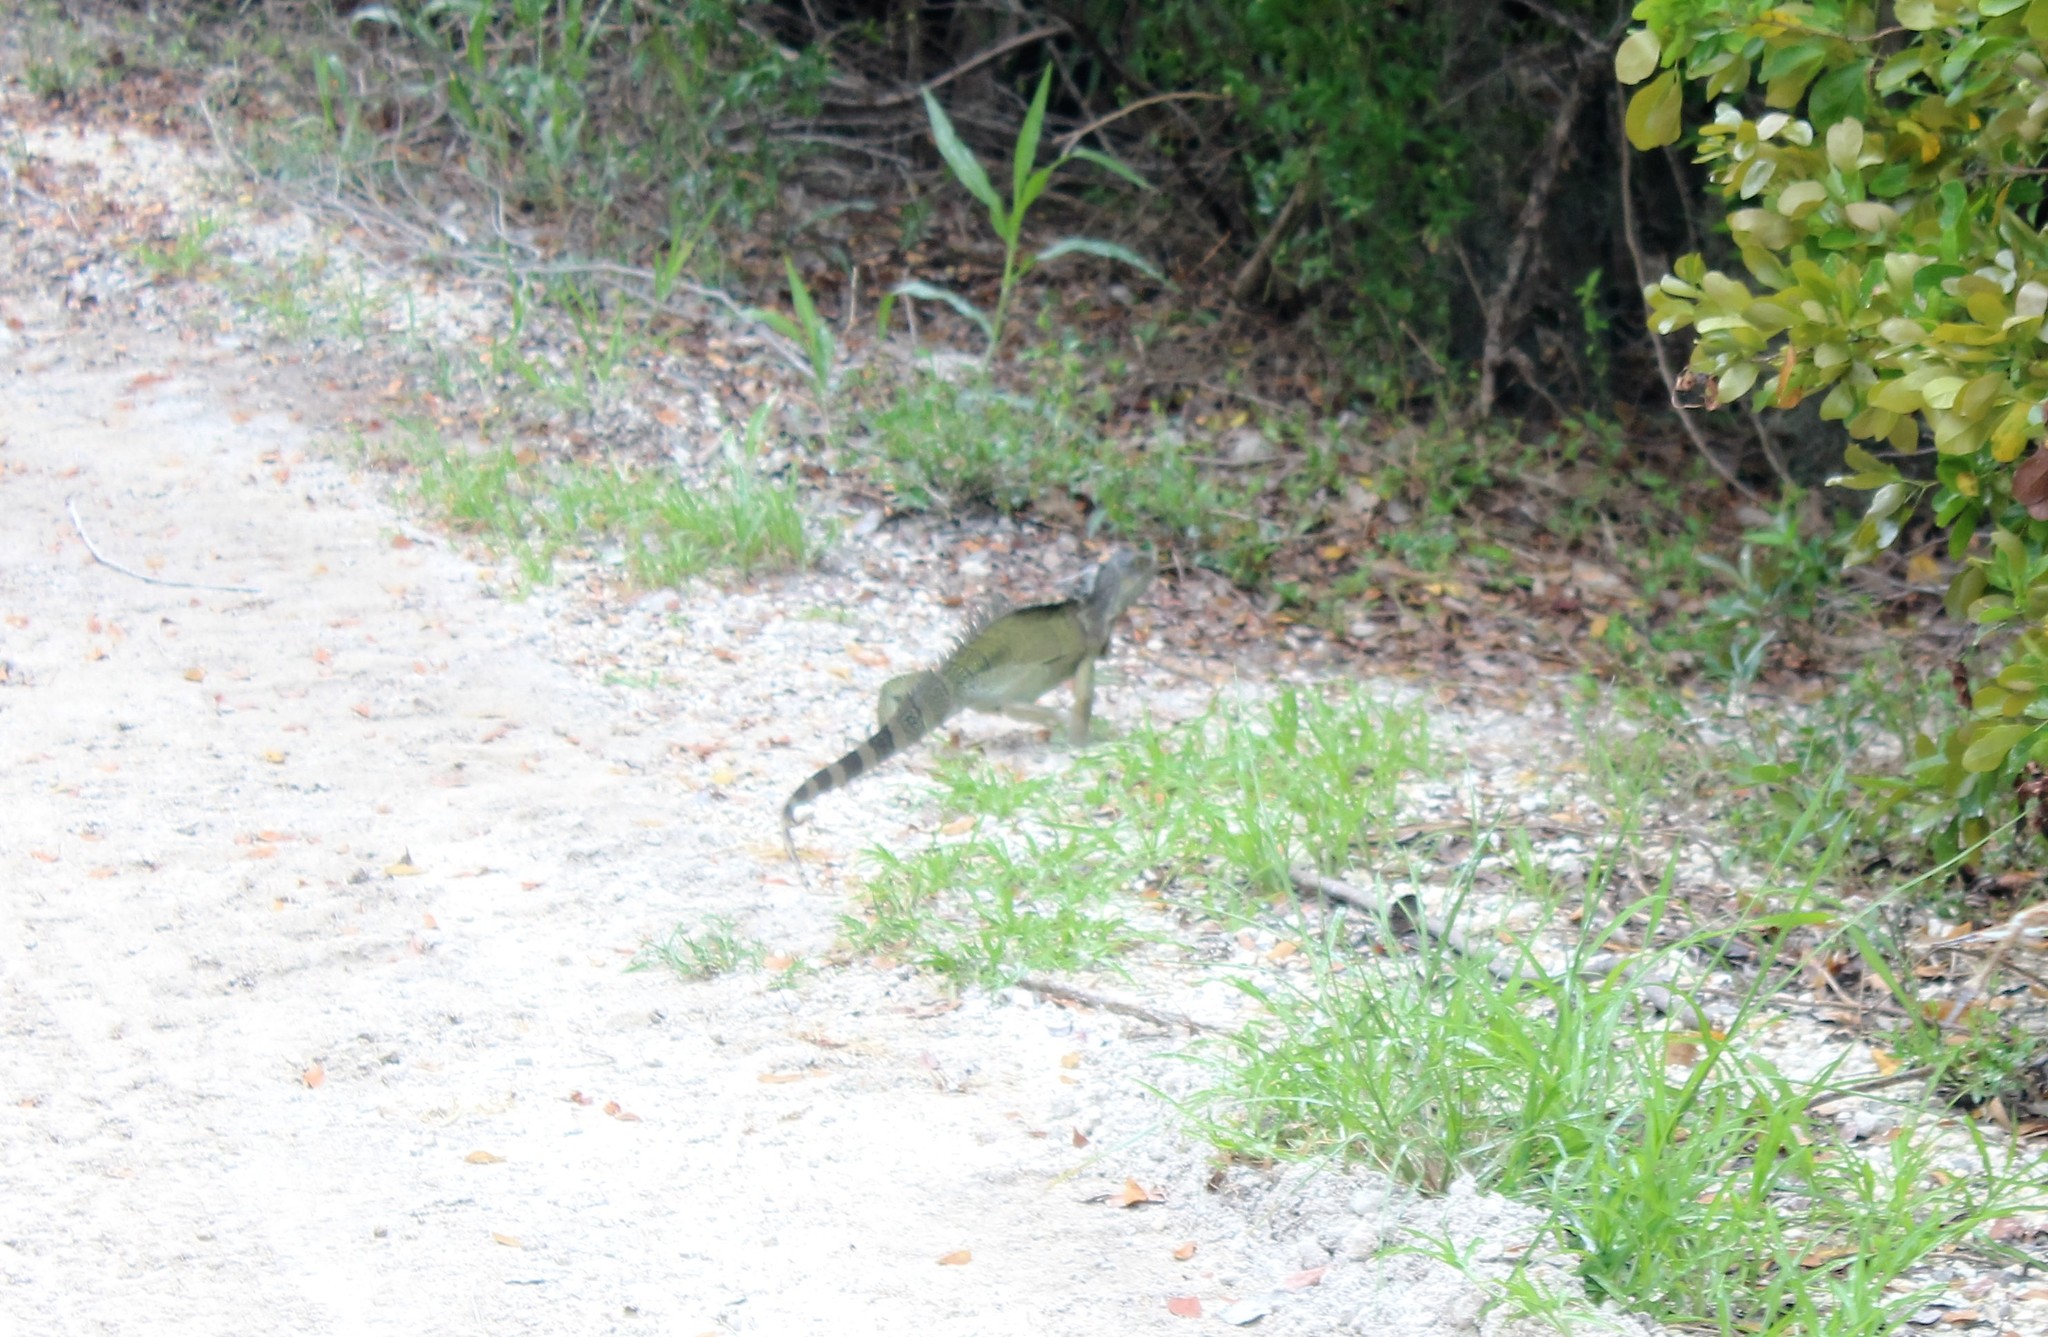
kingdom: Animalia
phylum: Chordata
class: Squamata
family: Iguanidae
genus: Iguana
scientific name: Iguana iguana
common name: Green iguana
